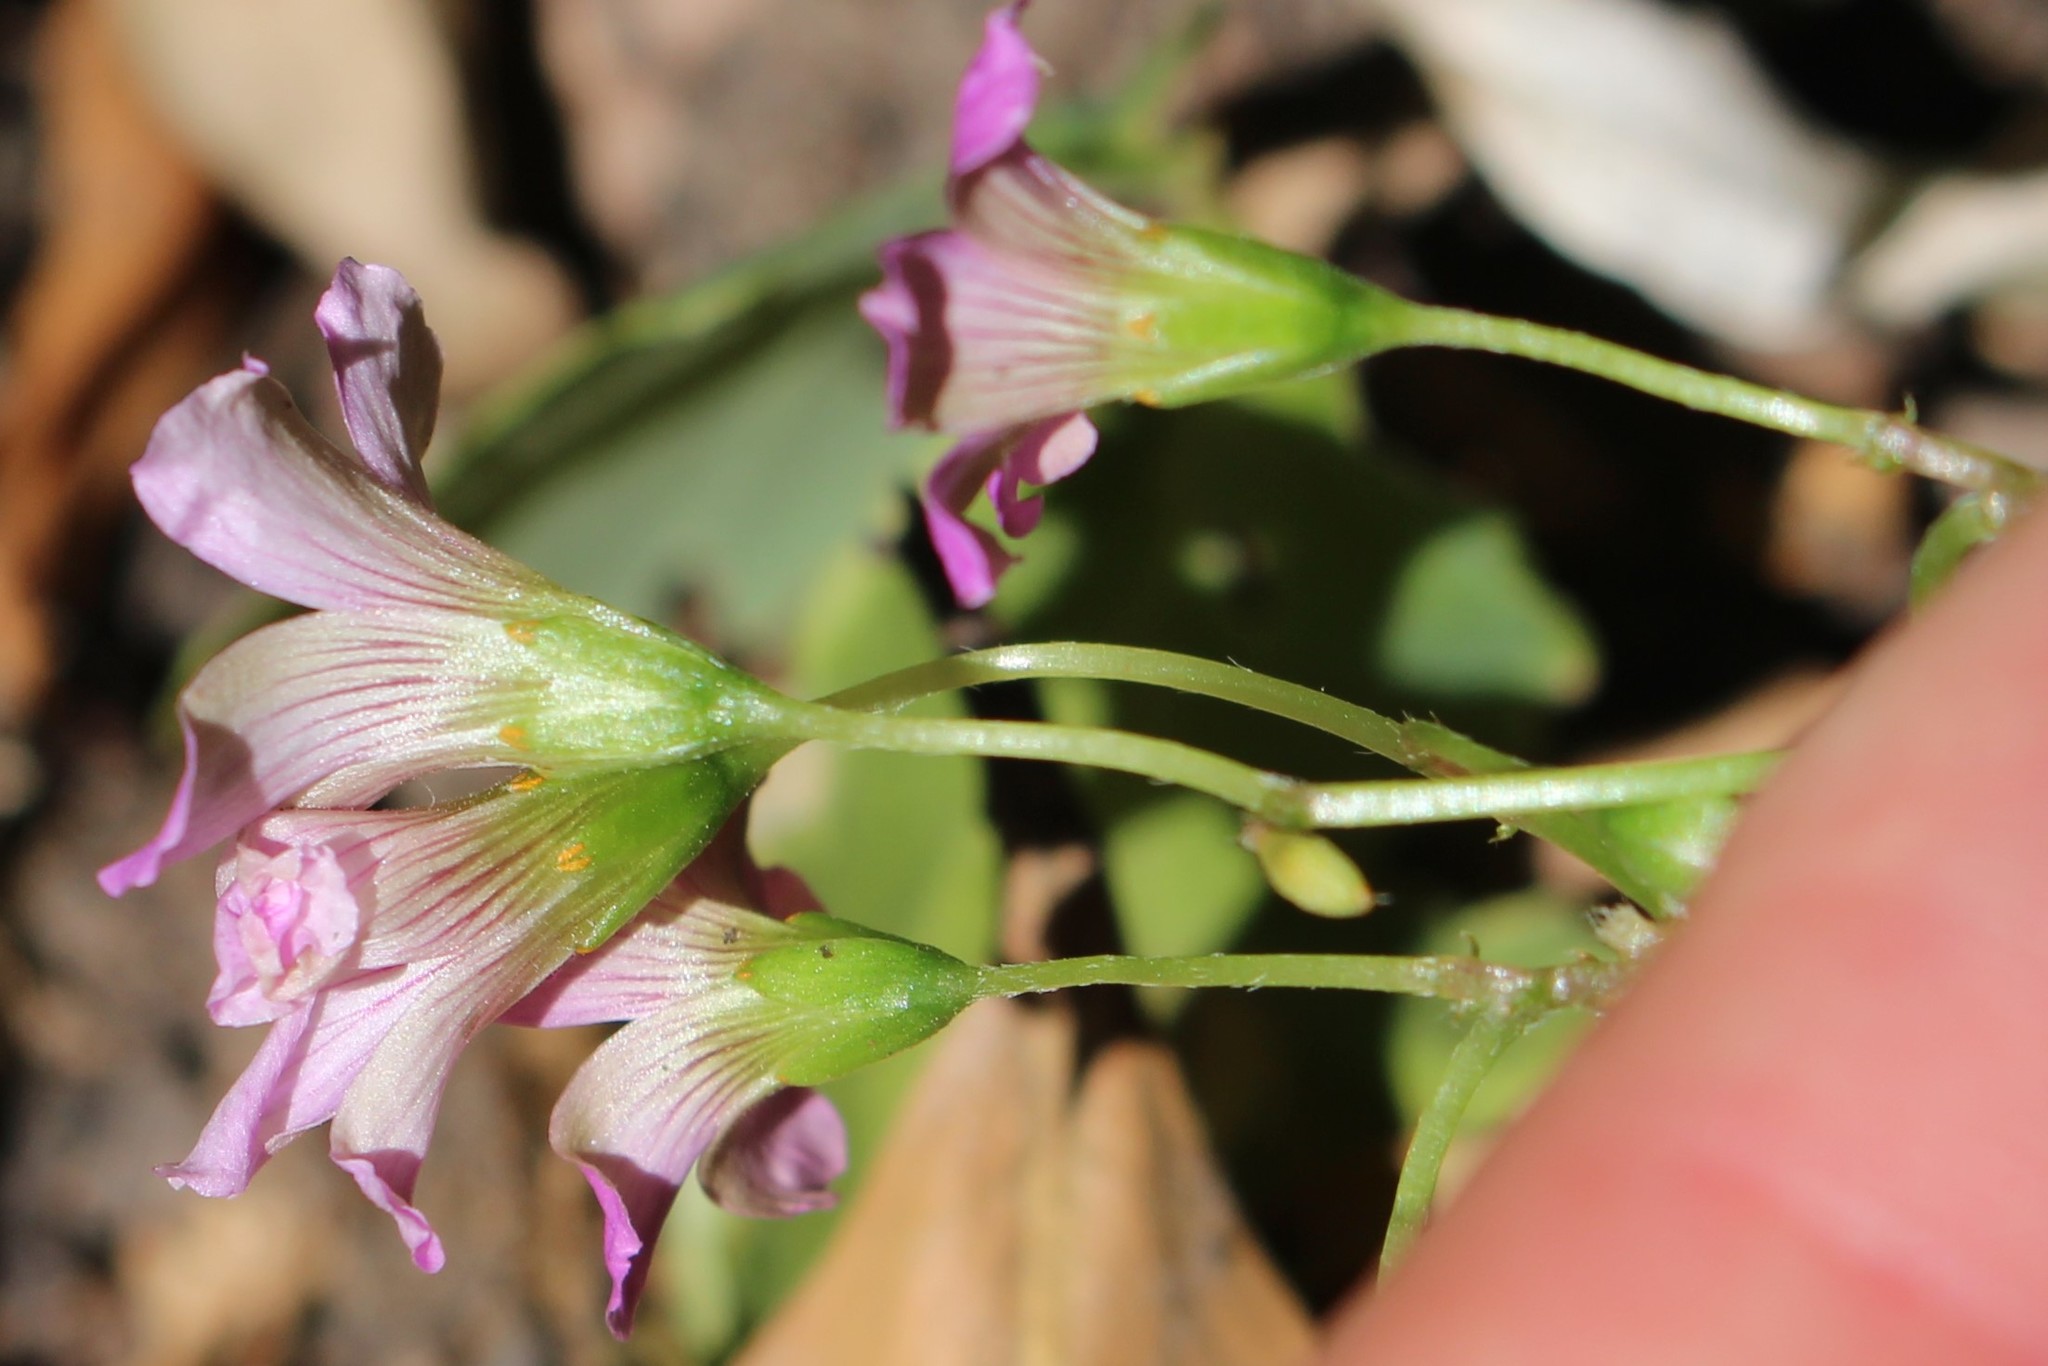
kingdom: Plantae
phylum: Tracheophyta
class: Magnoliopsida
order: Oxalidales
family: Oxalidaceae
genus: Oxalis
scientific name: Oxalis articulata
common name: Pink-sorrel
